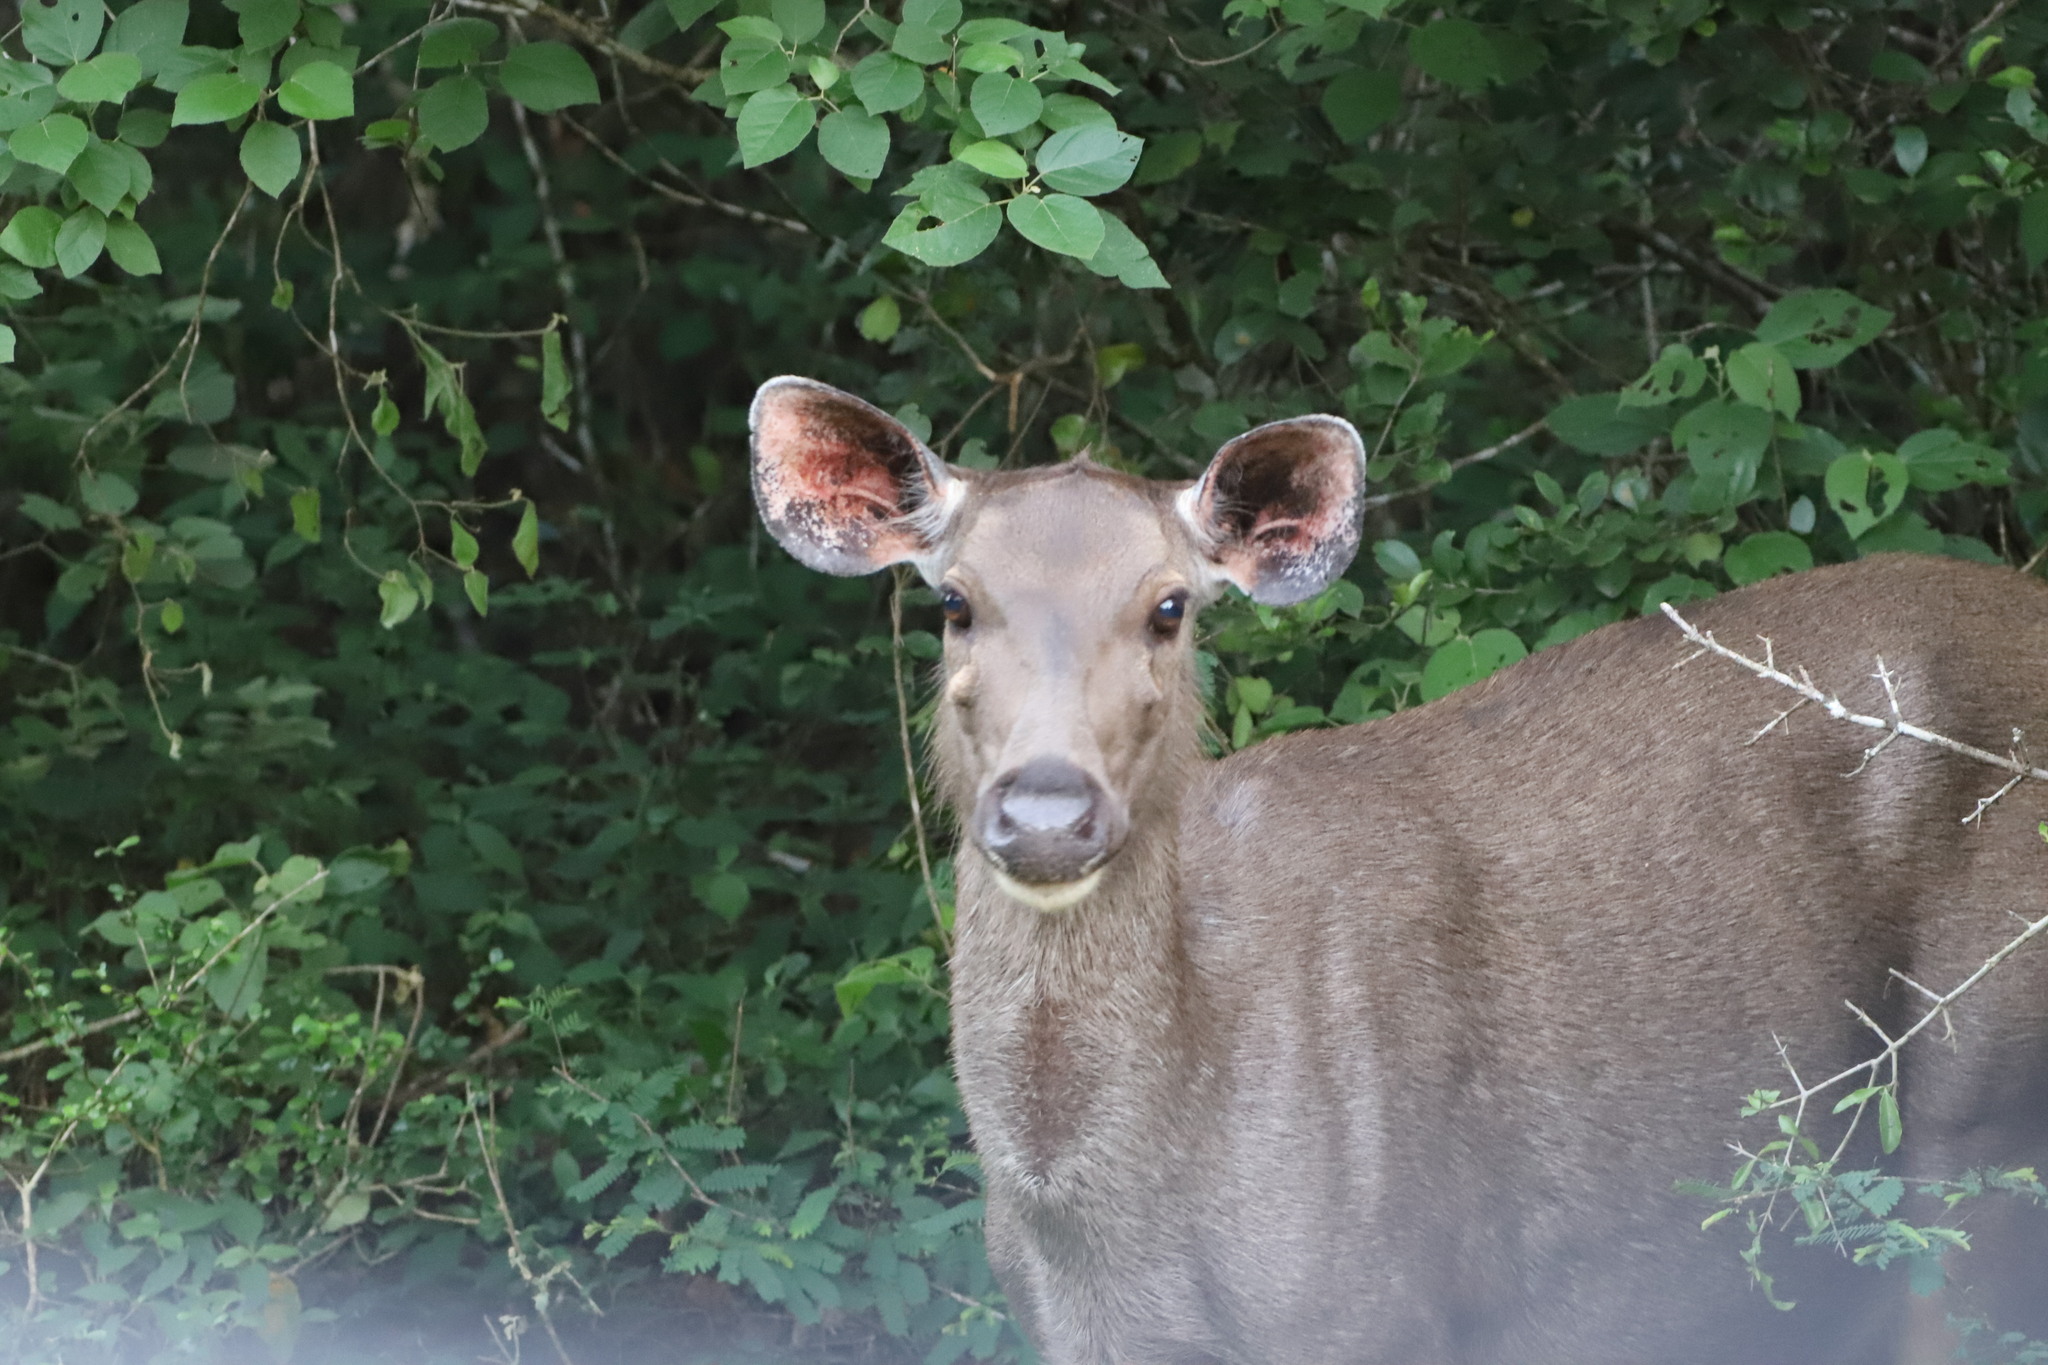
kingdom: Animalia
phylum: Chordata
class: Mammalia
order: Artiodactyla
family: Cervidae
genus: Rusa
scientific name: Rusa unicolor
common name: Sambar
